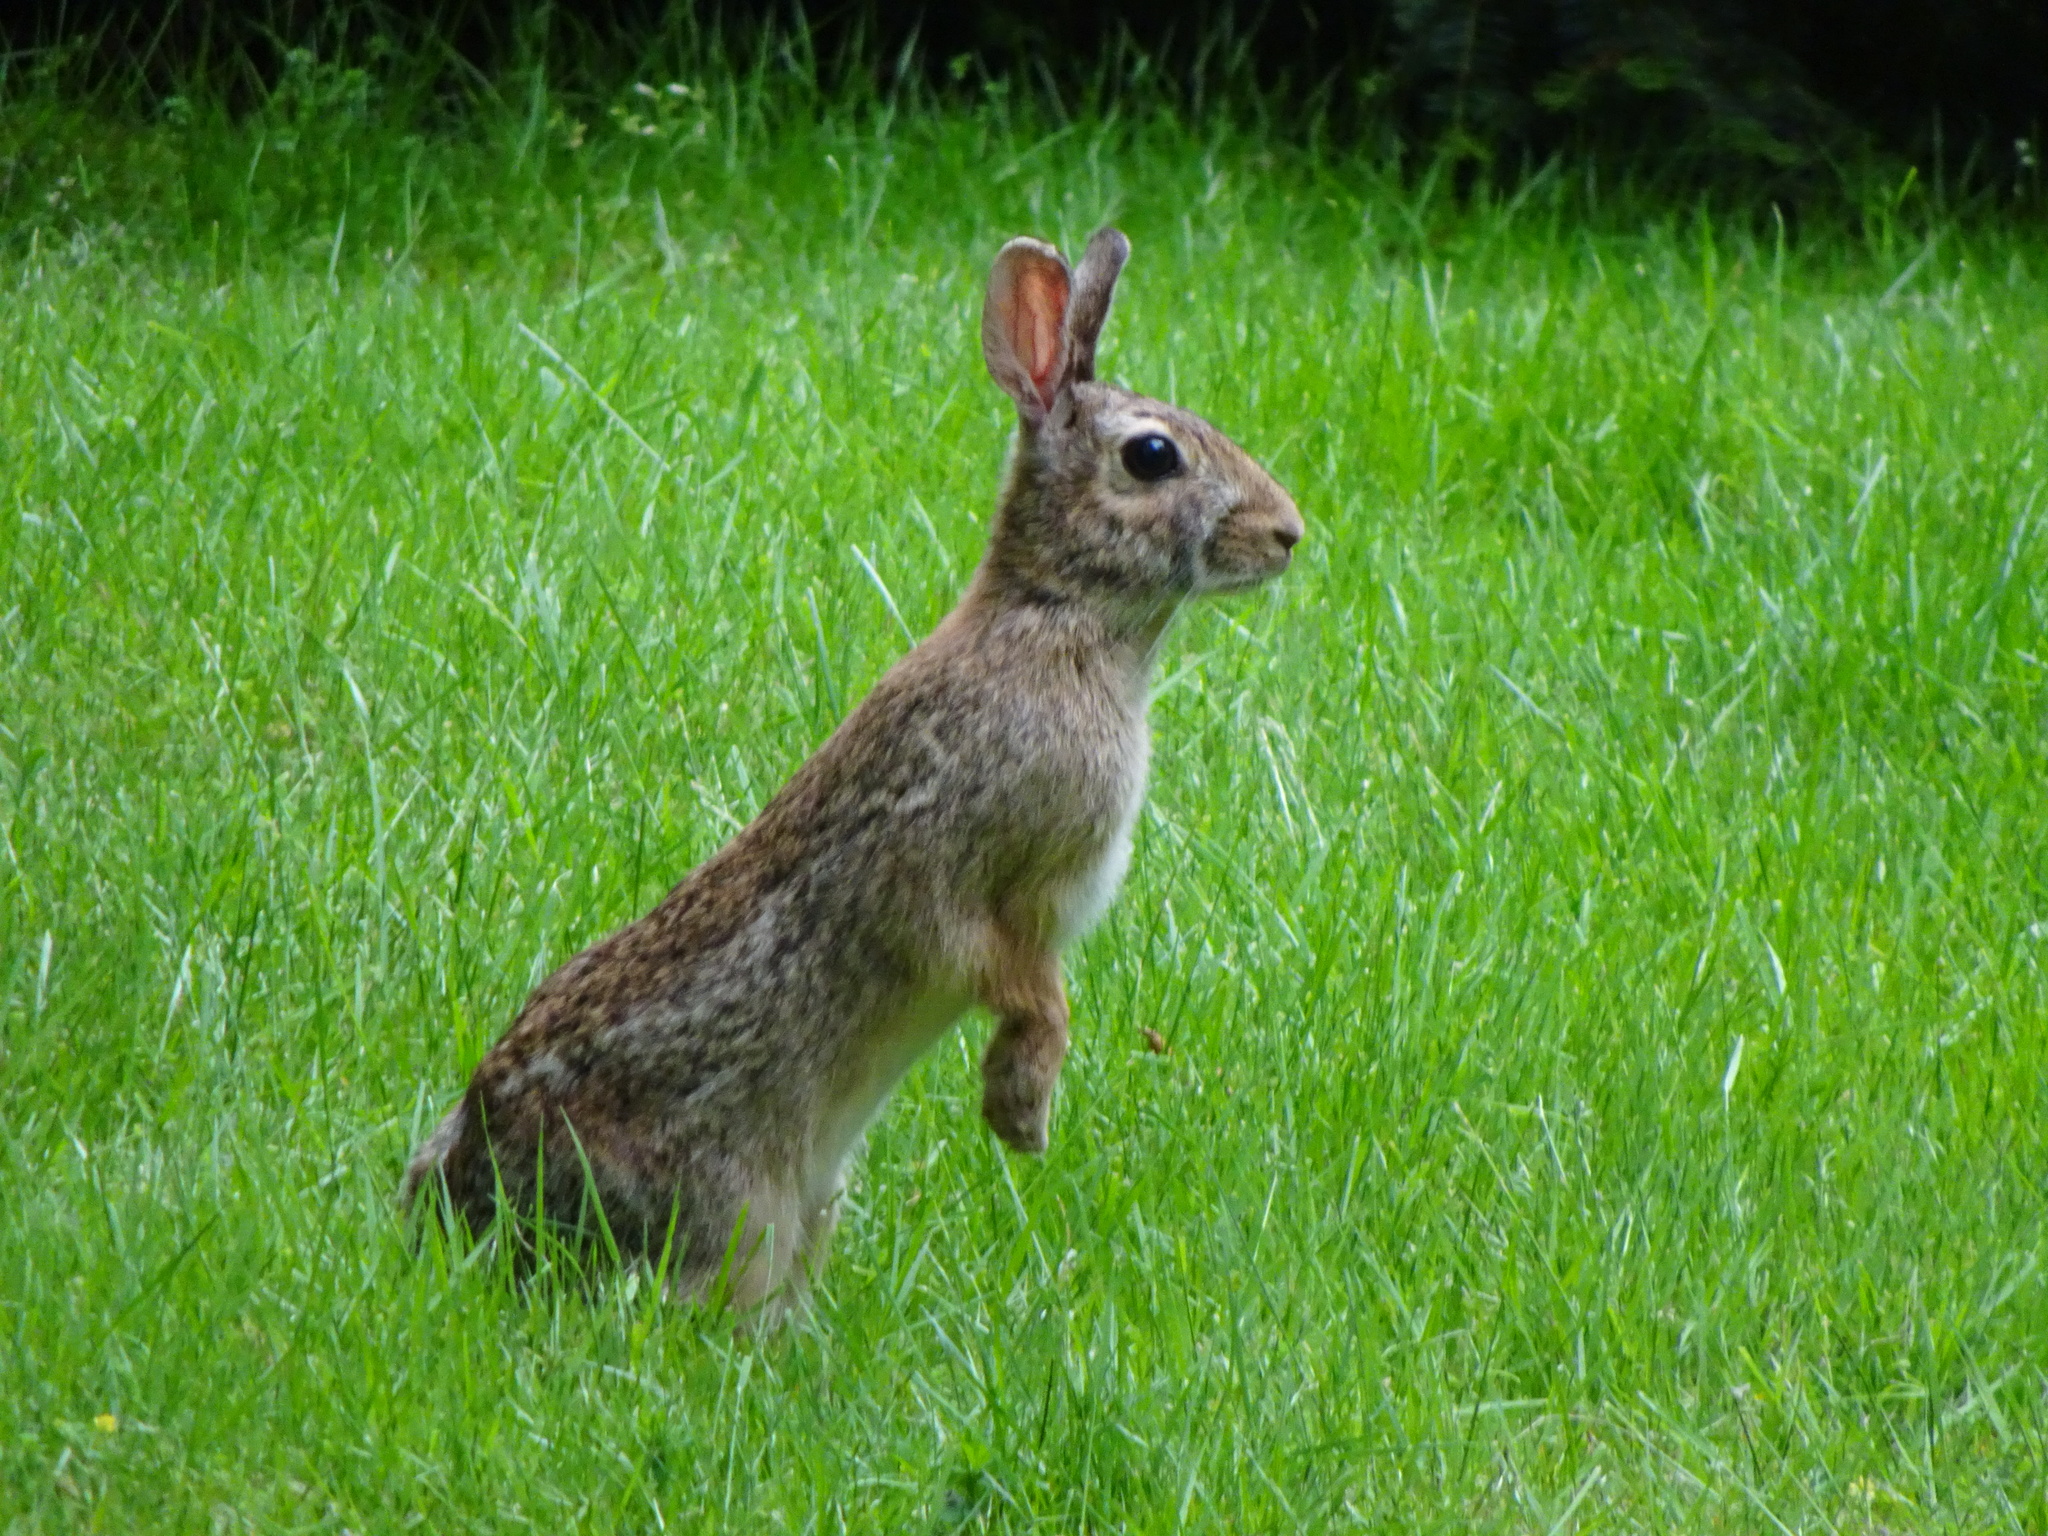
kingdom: Animalia
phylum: Chordata
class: Mammalia
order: Lagomorpha
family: Leporidae
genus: Sylvilagus
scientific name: Sylvilagus floridanus
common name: Eastern cottontail
